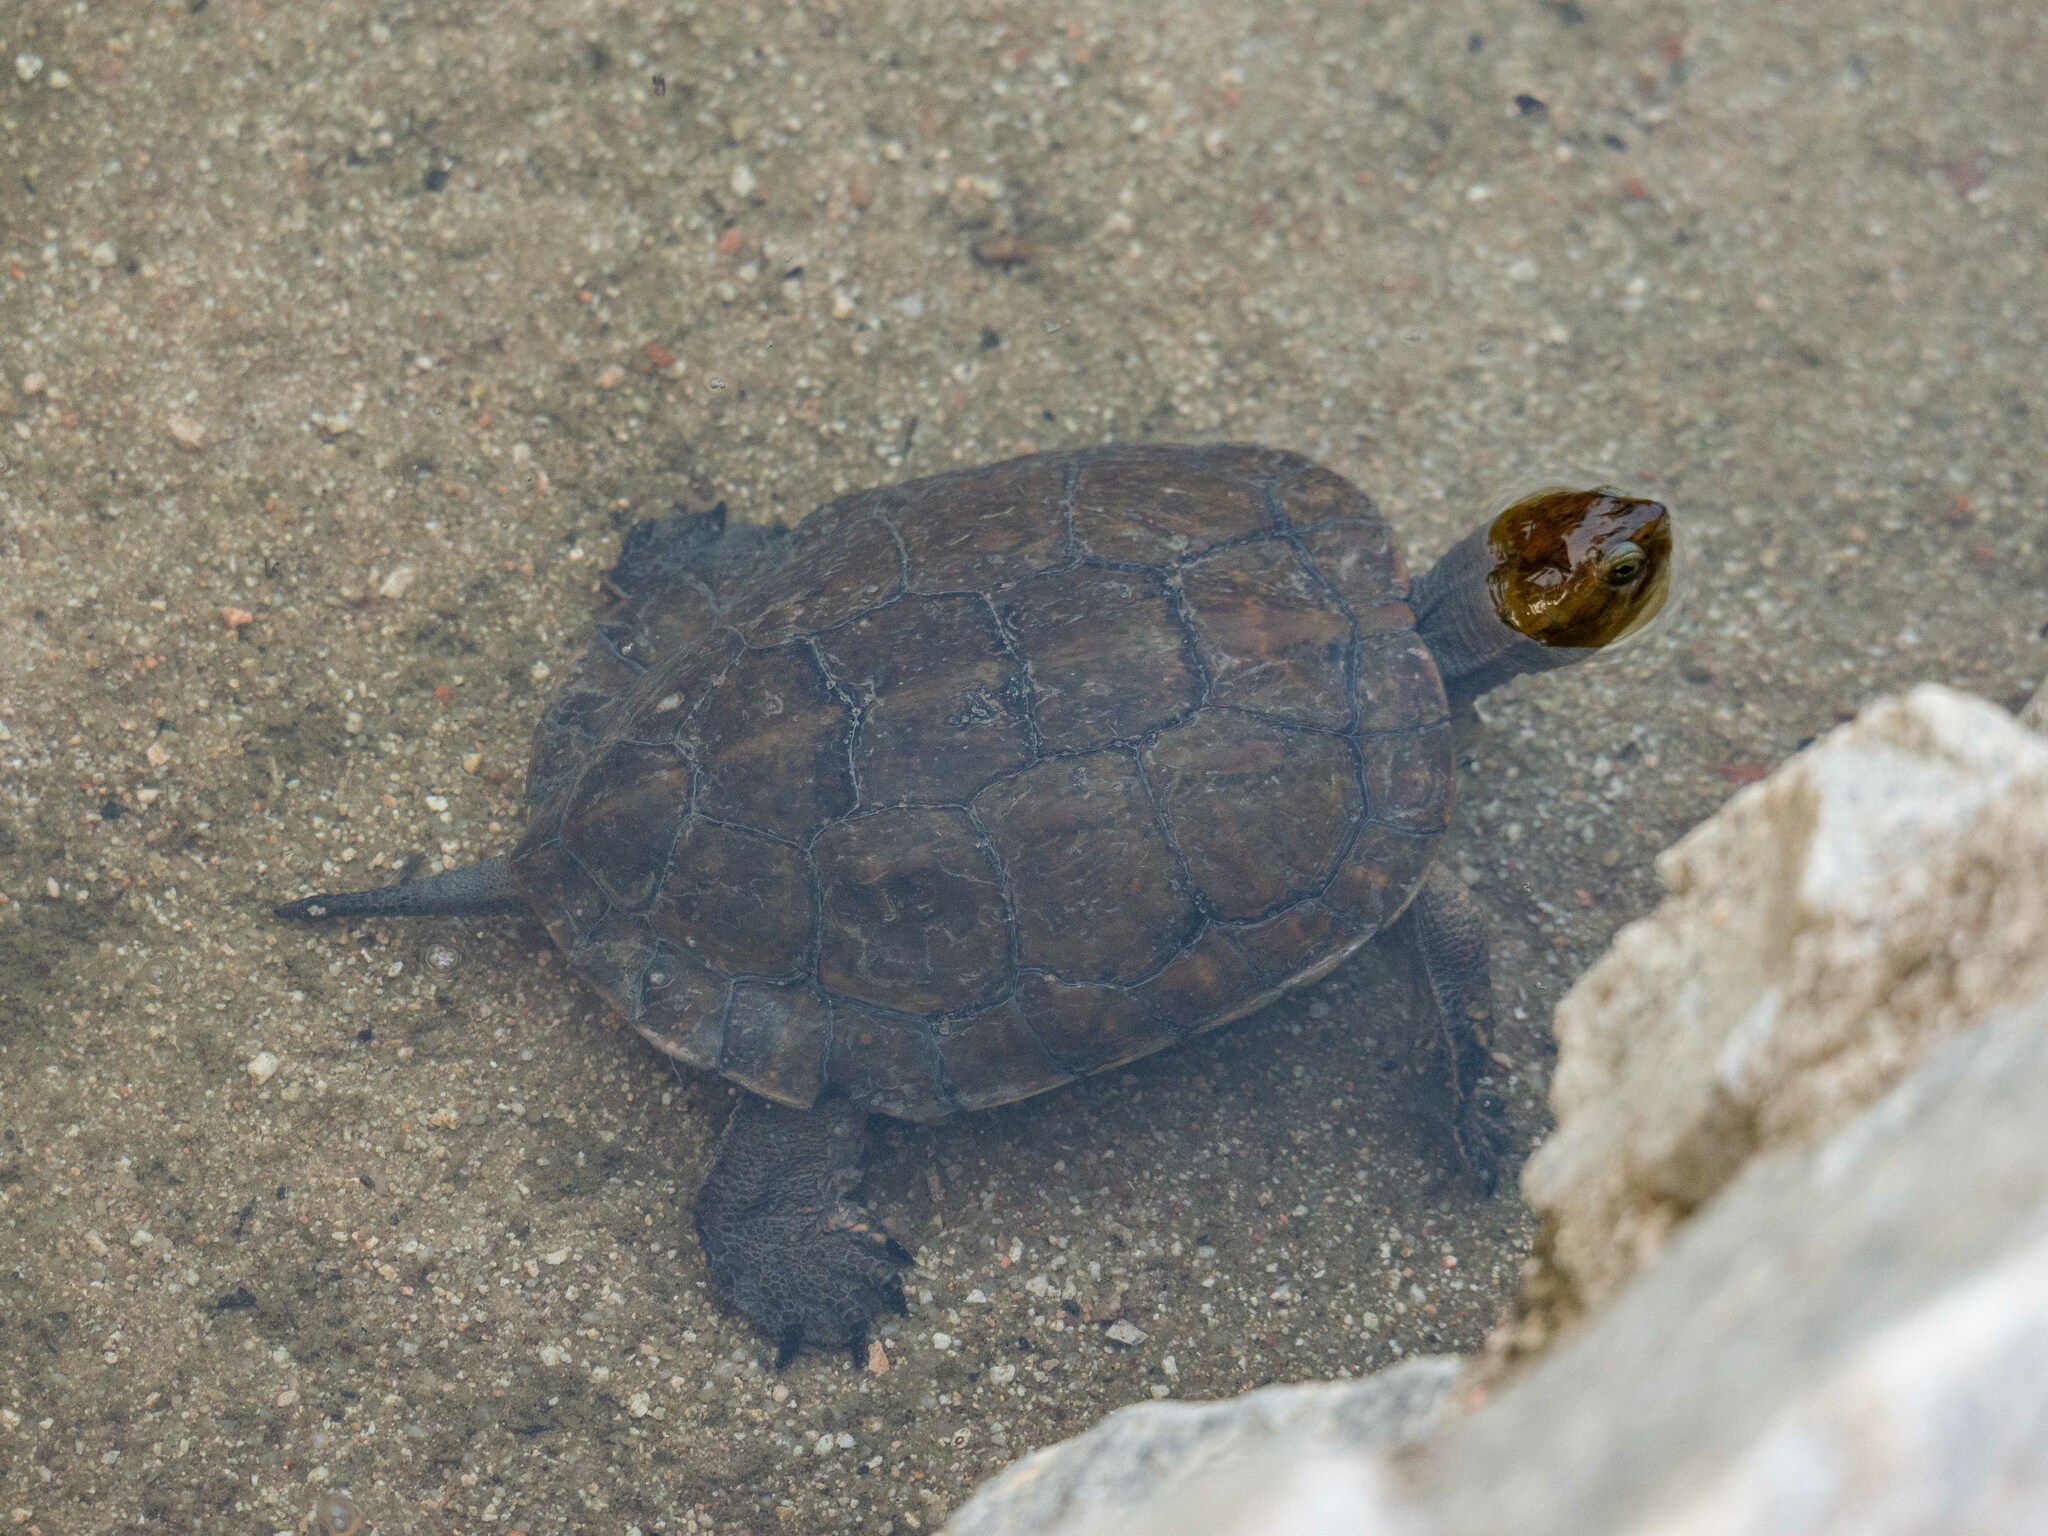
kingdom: Animalia
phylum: Chordata
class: Testudines
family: Geoemydidae
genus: Mauremys
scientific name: Mauremys leprosa
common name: Mediterranean pond turtle
